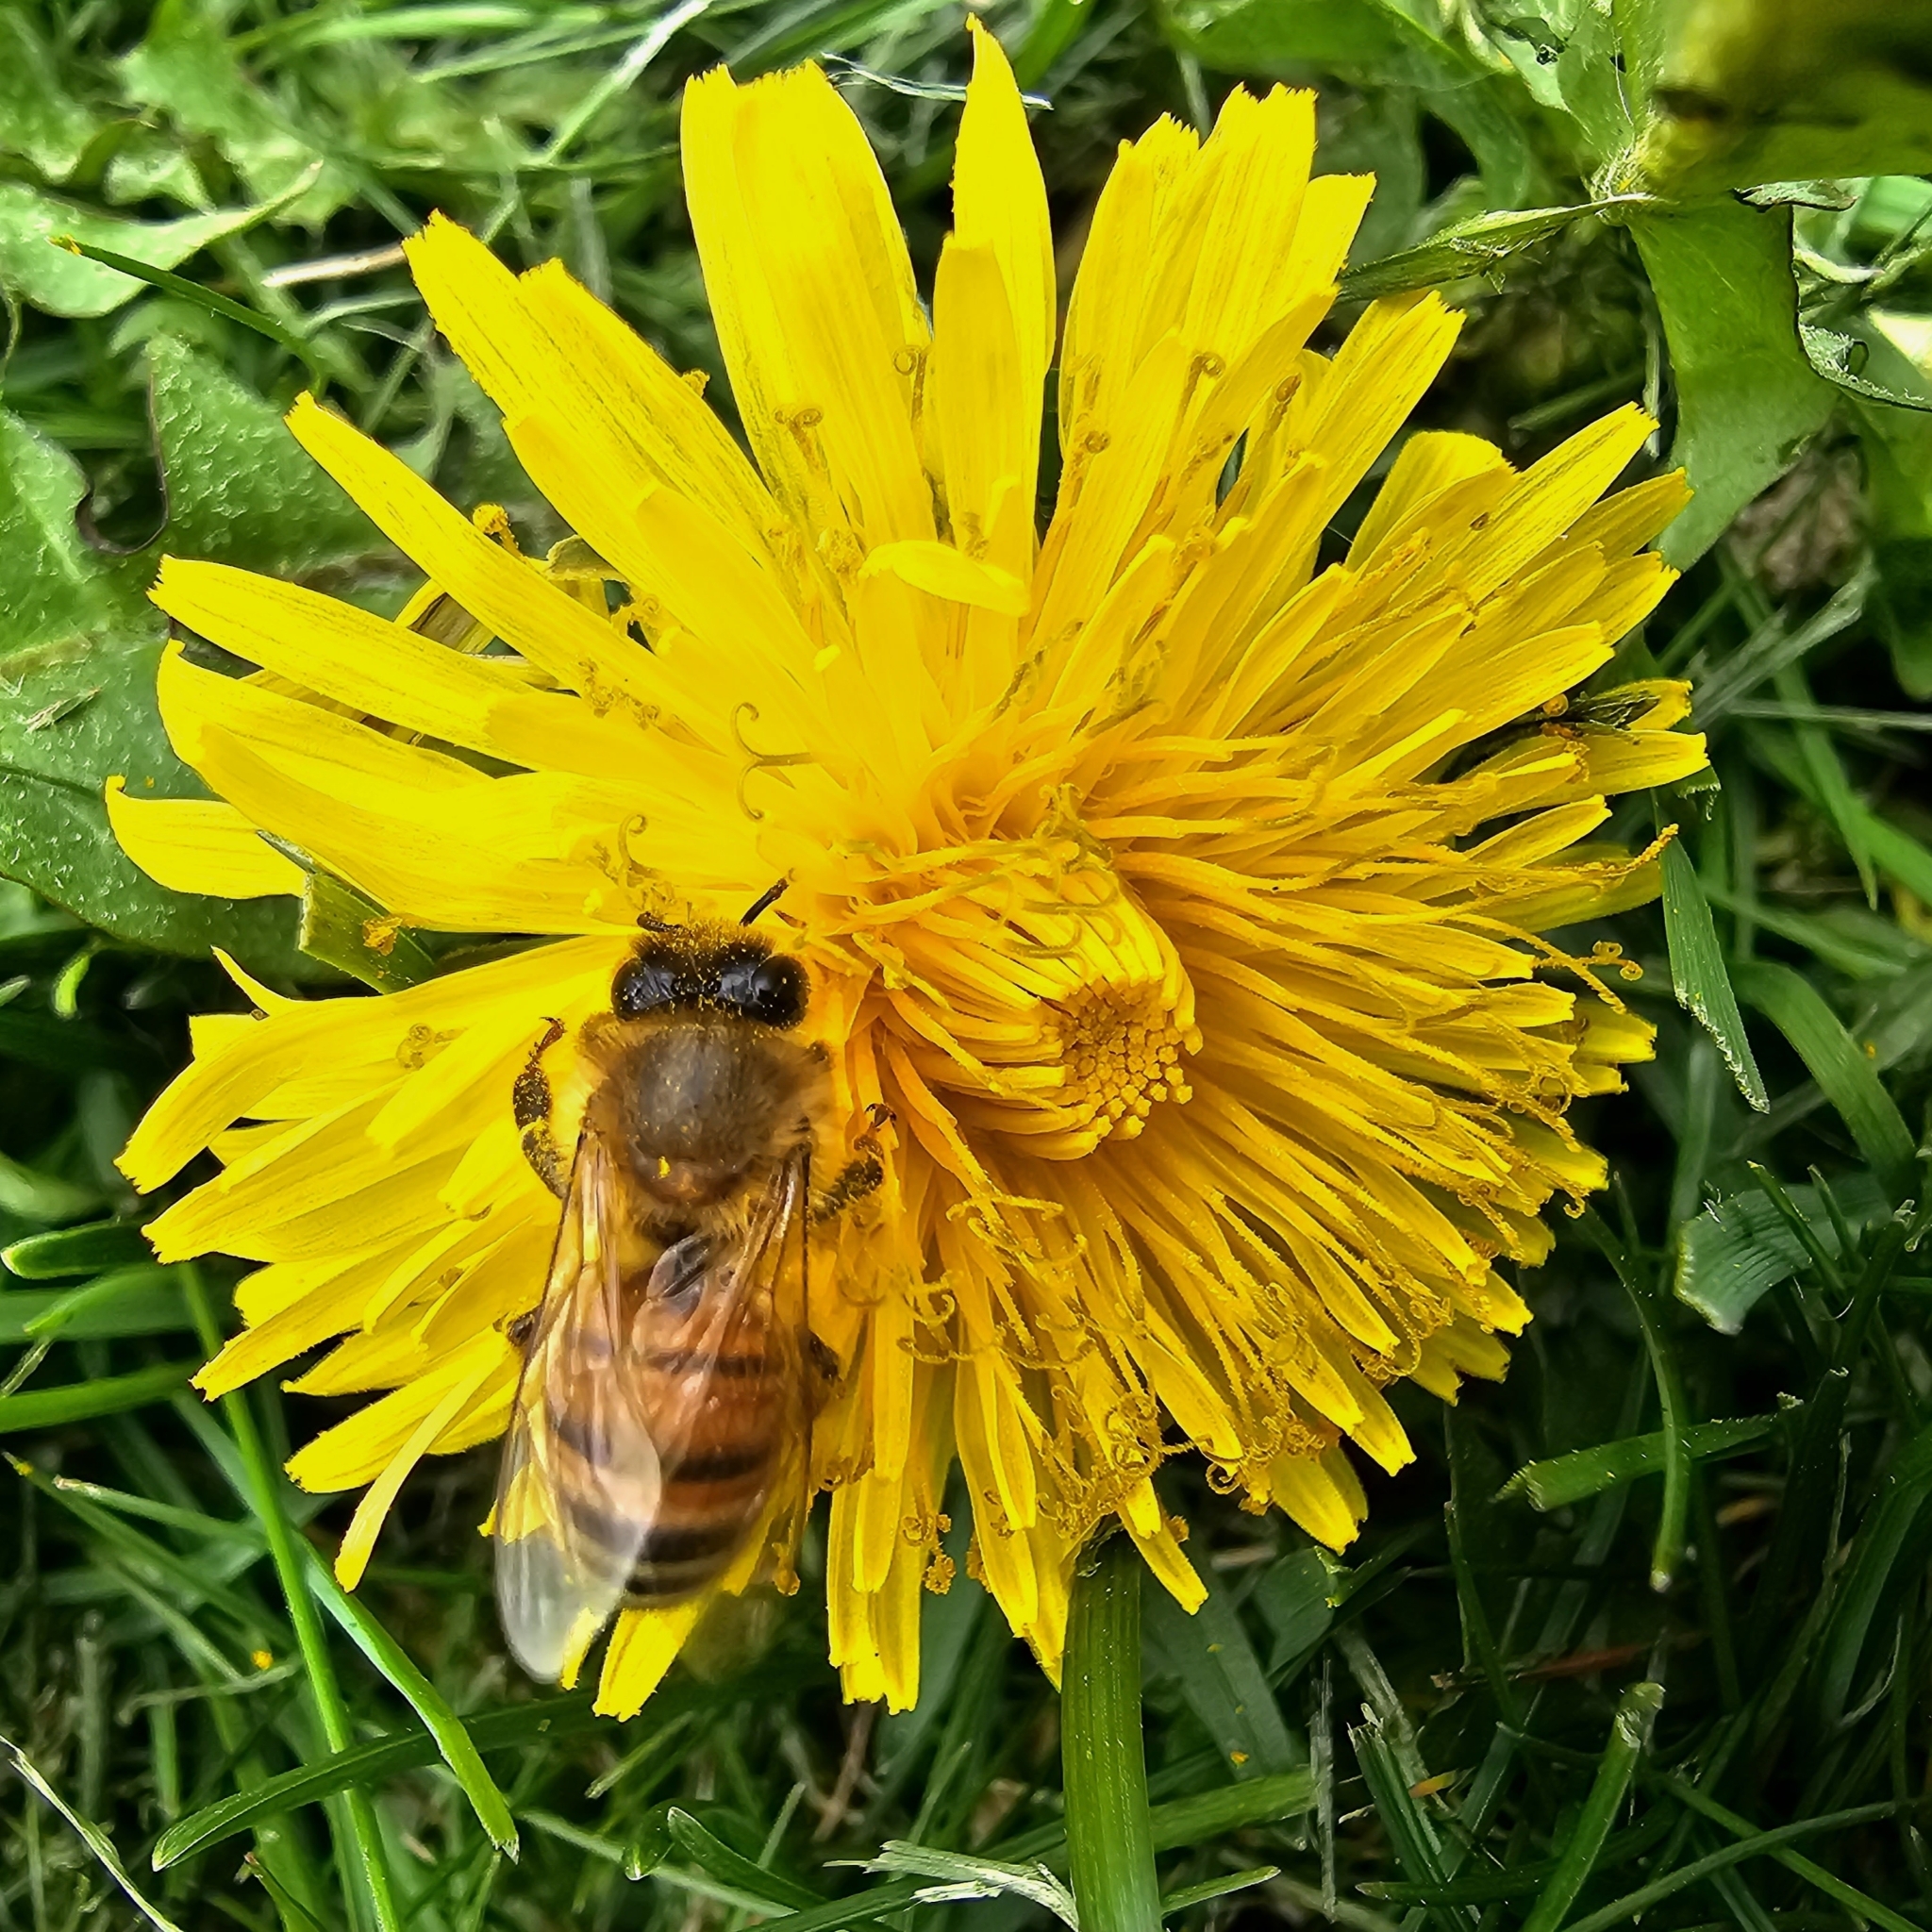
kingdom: Animalia
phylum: Arthropoda
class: Insecta
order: Hymenoptera
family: Apidae
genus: Apis
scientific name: Apis mellifera
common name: Honey bee
